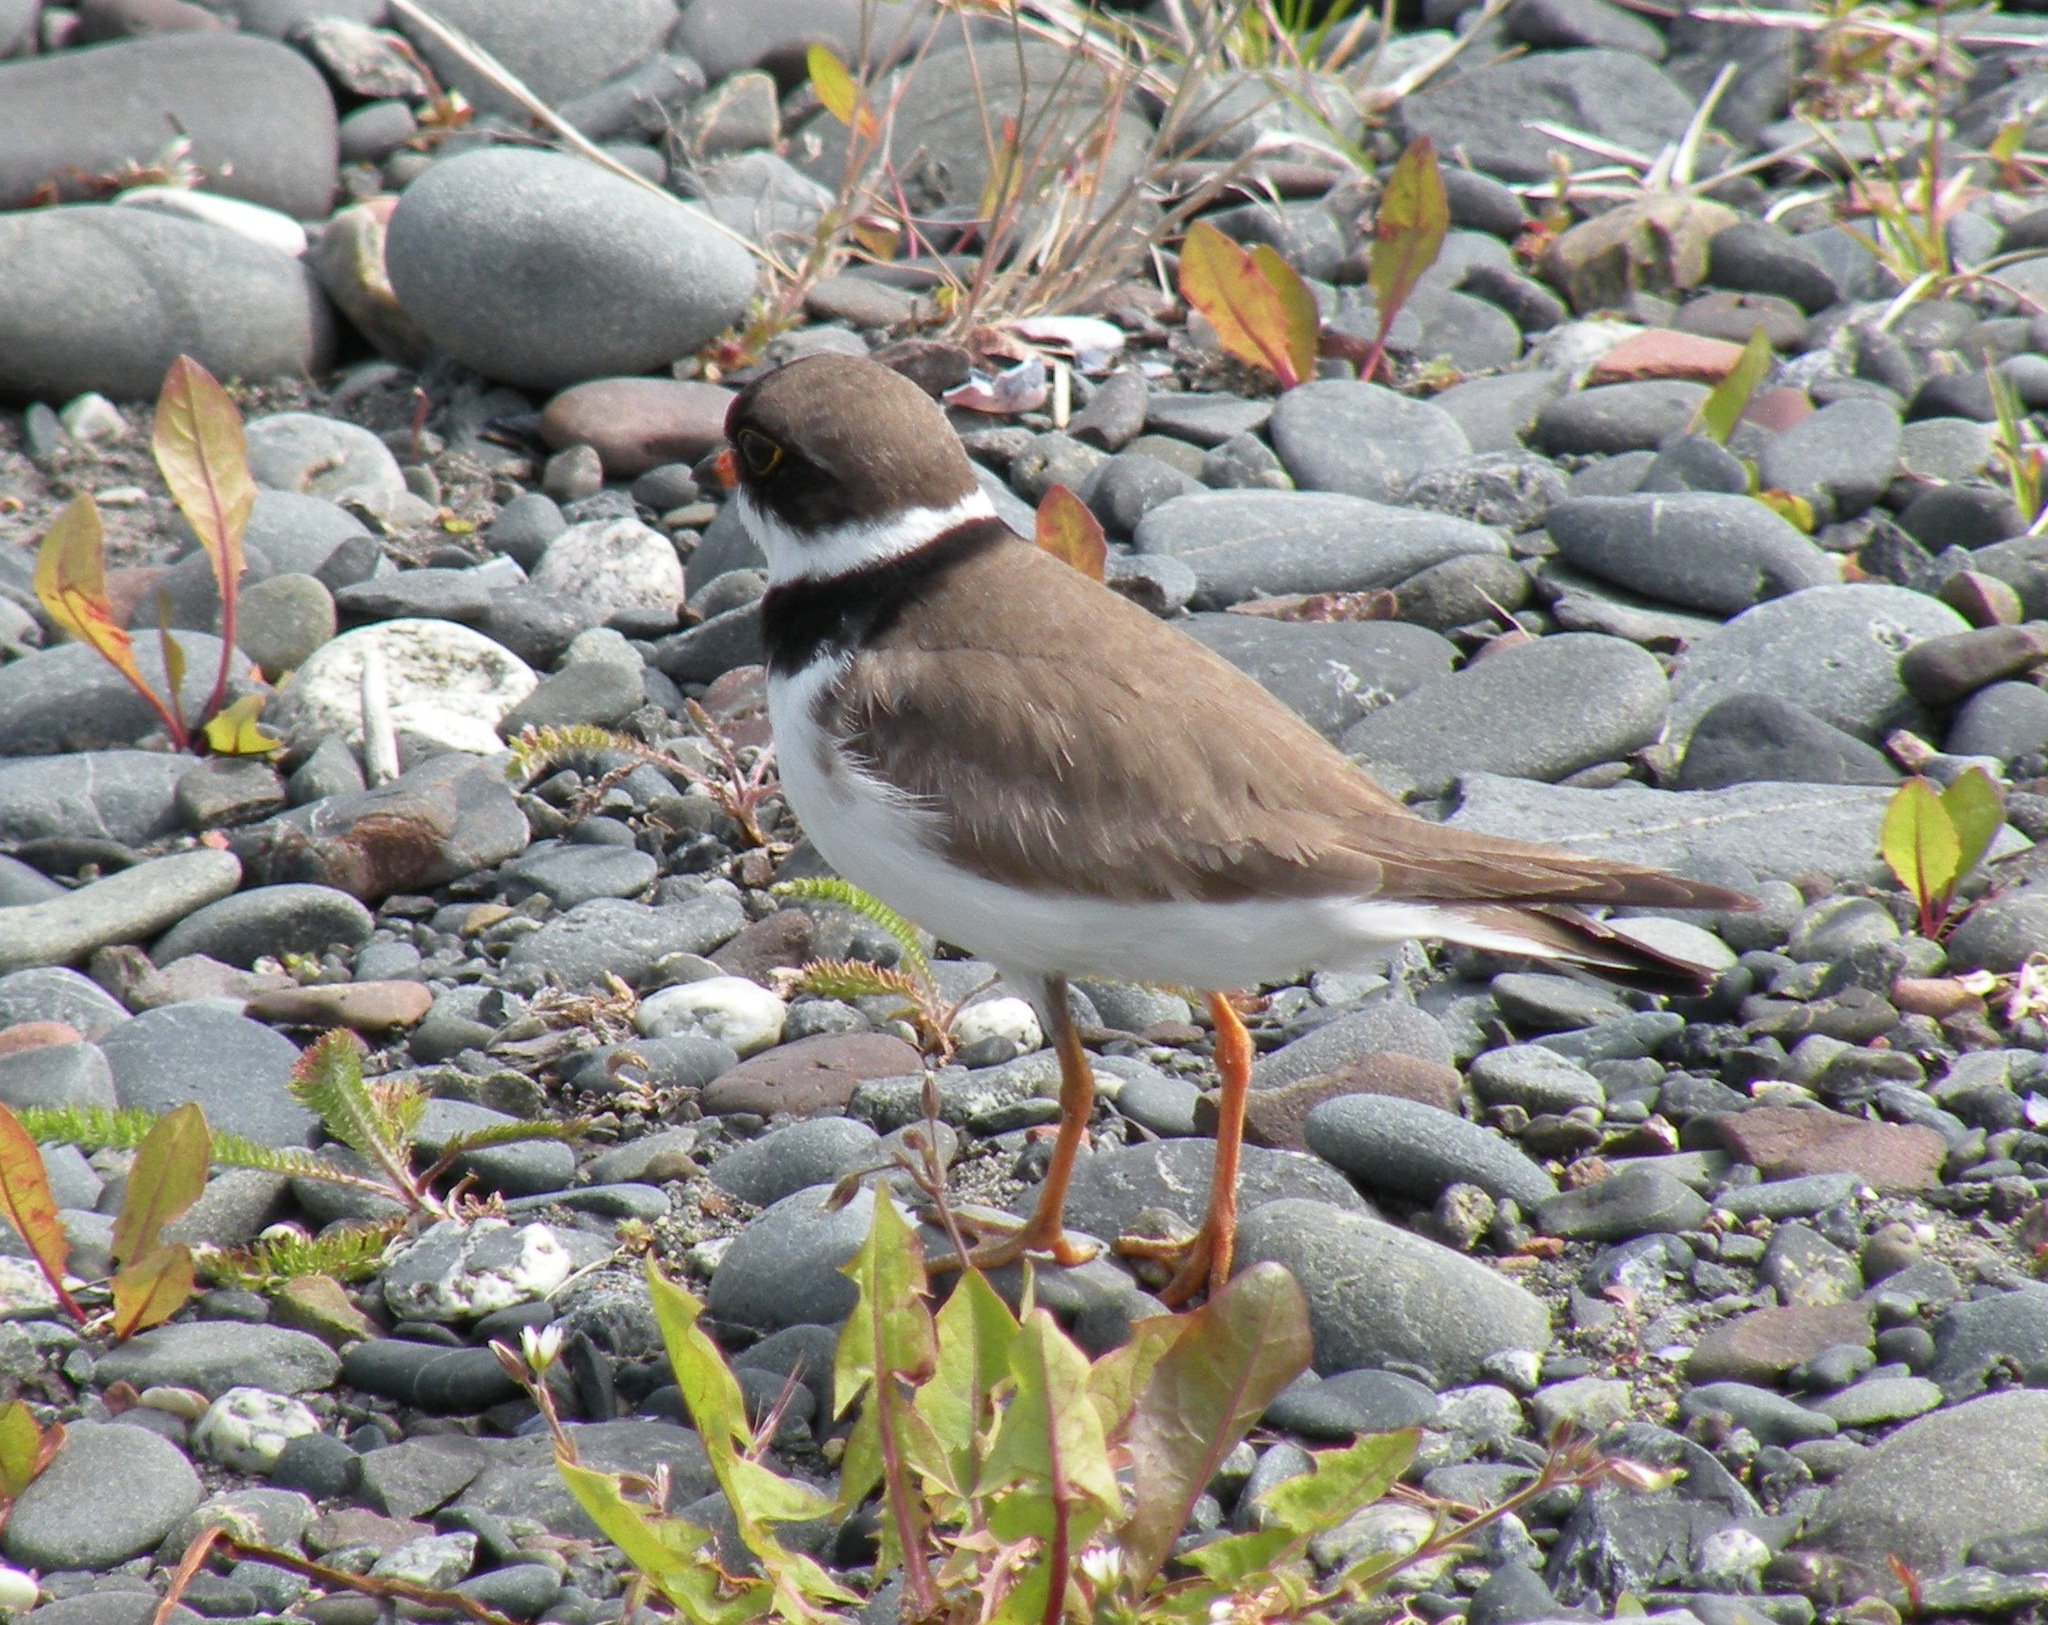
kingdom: Animalia
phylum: Chordata
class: Aves
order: Charadriiformes
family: Charadriidae
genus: Charadrius
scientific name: Charadrius semipalmatus
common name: Semipalmated plover
